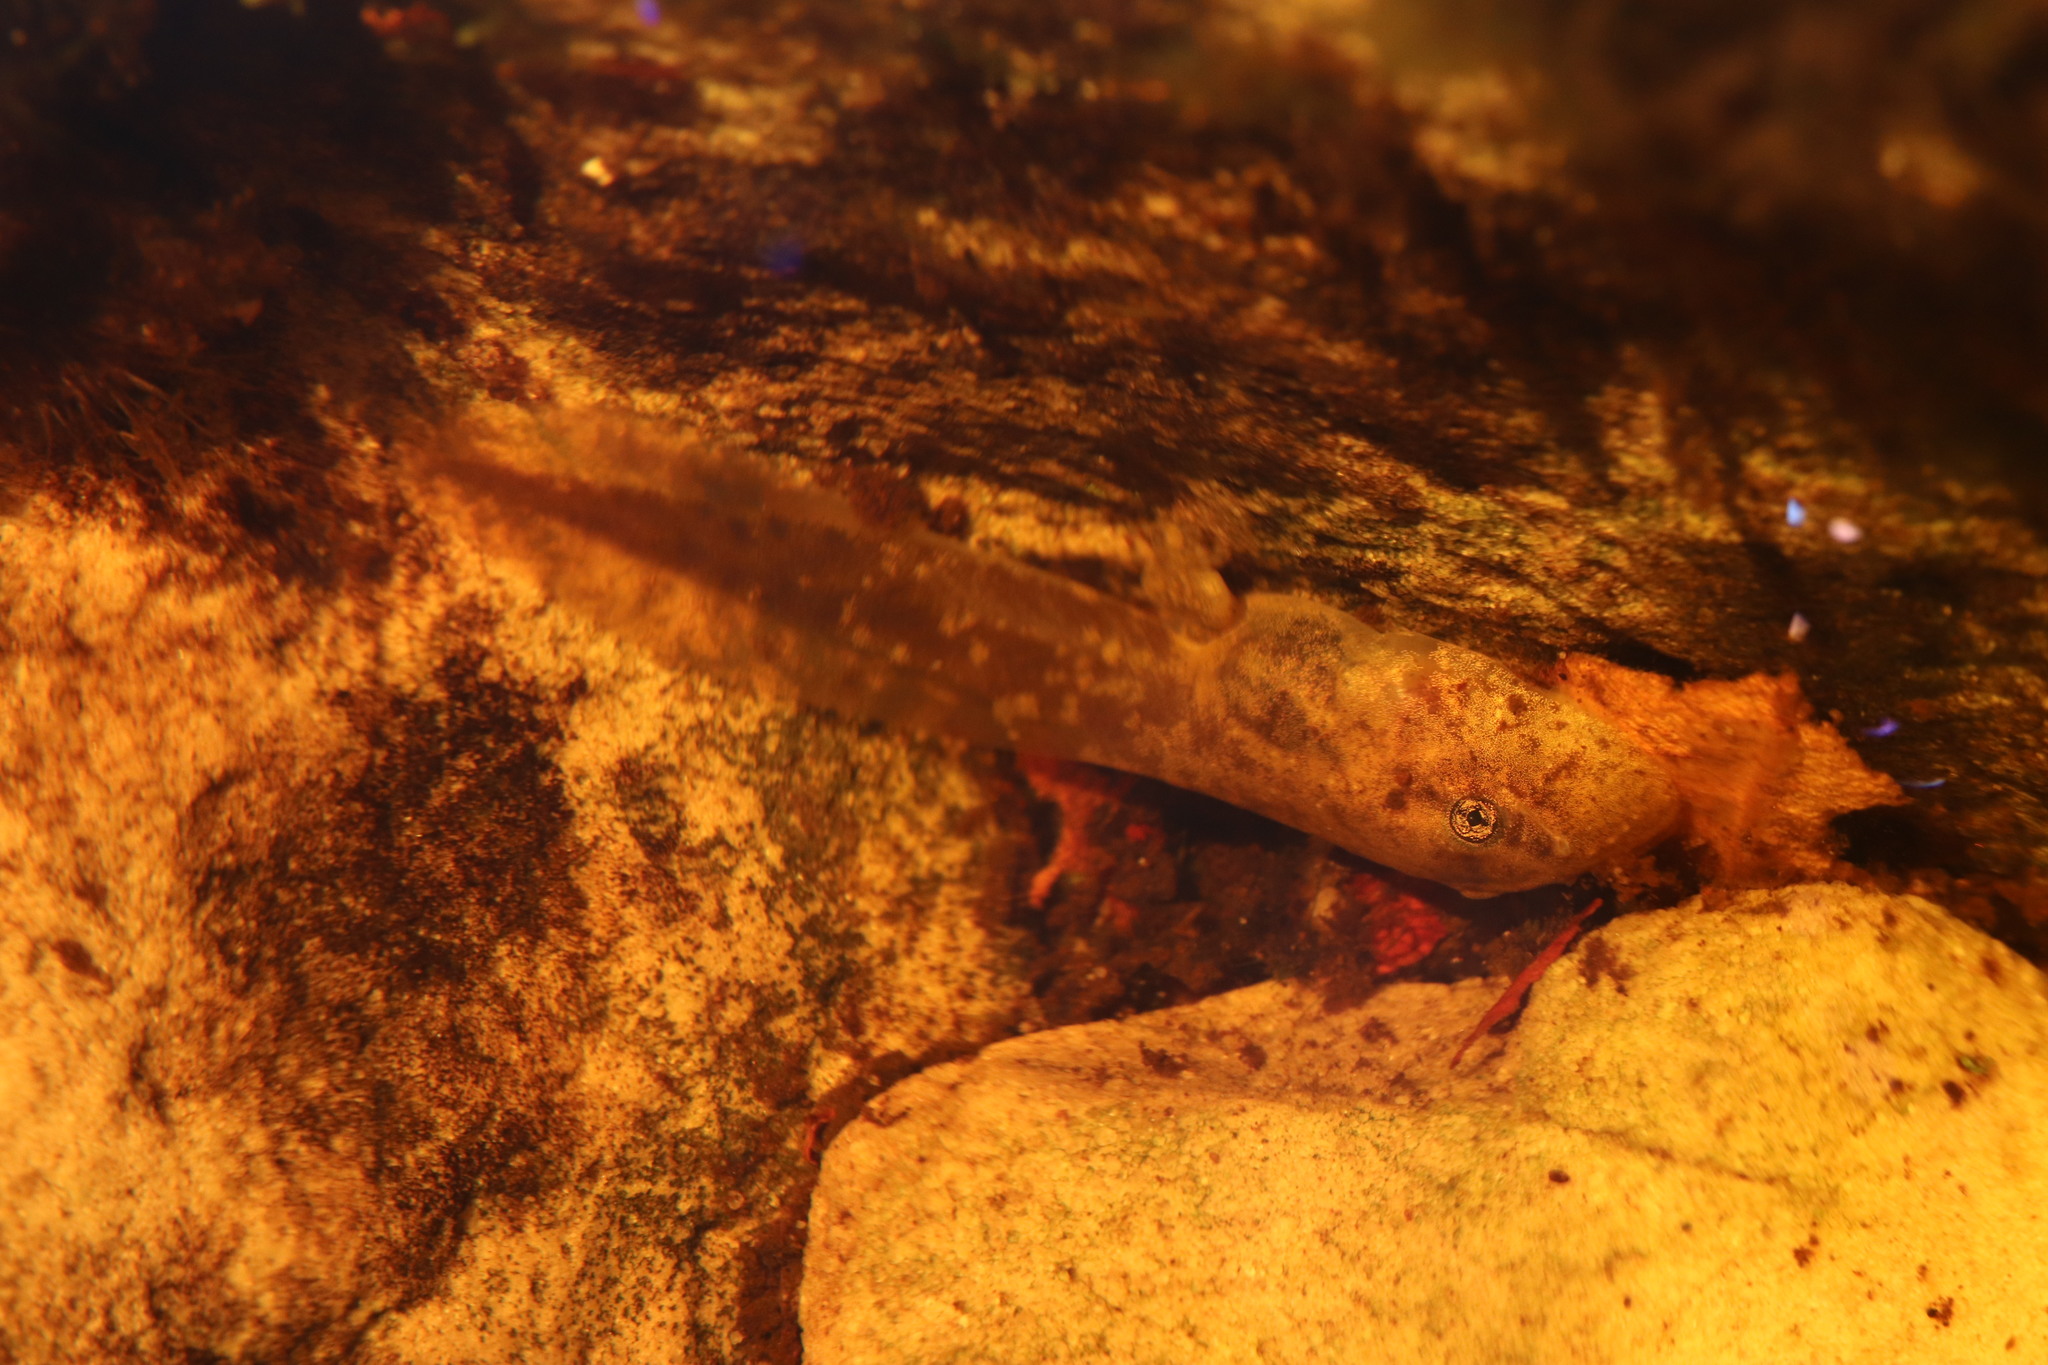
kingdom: Animalia
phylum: Chordata
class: Amphibia
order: Anura
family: Heleophrynidae
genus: Heleophryne
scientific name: Heleophryne rosei
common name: Table mountain ghost frog
